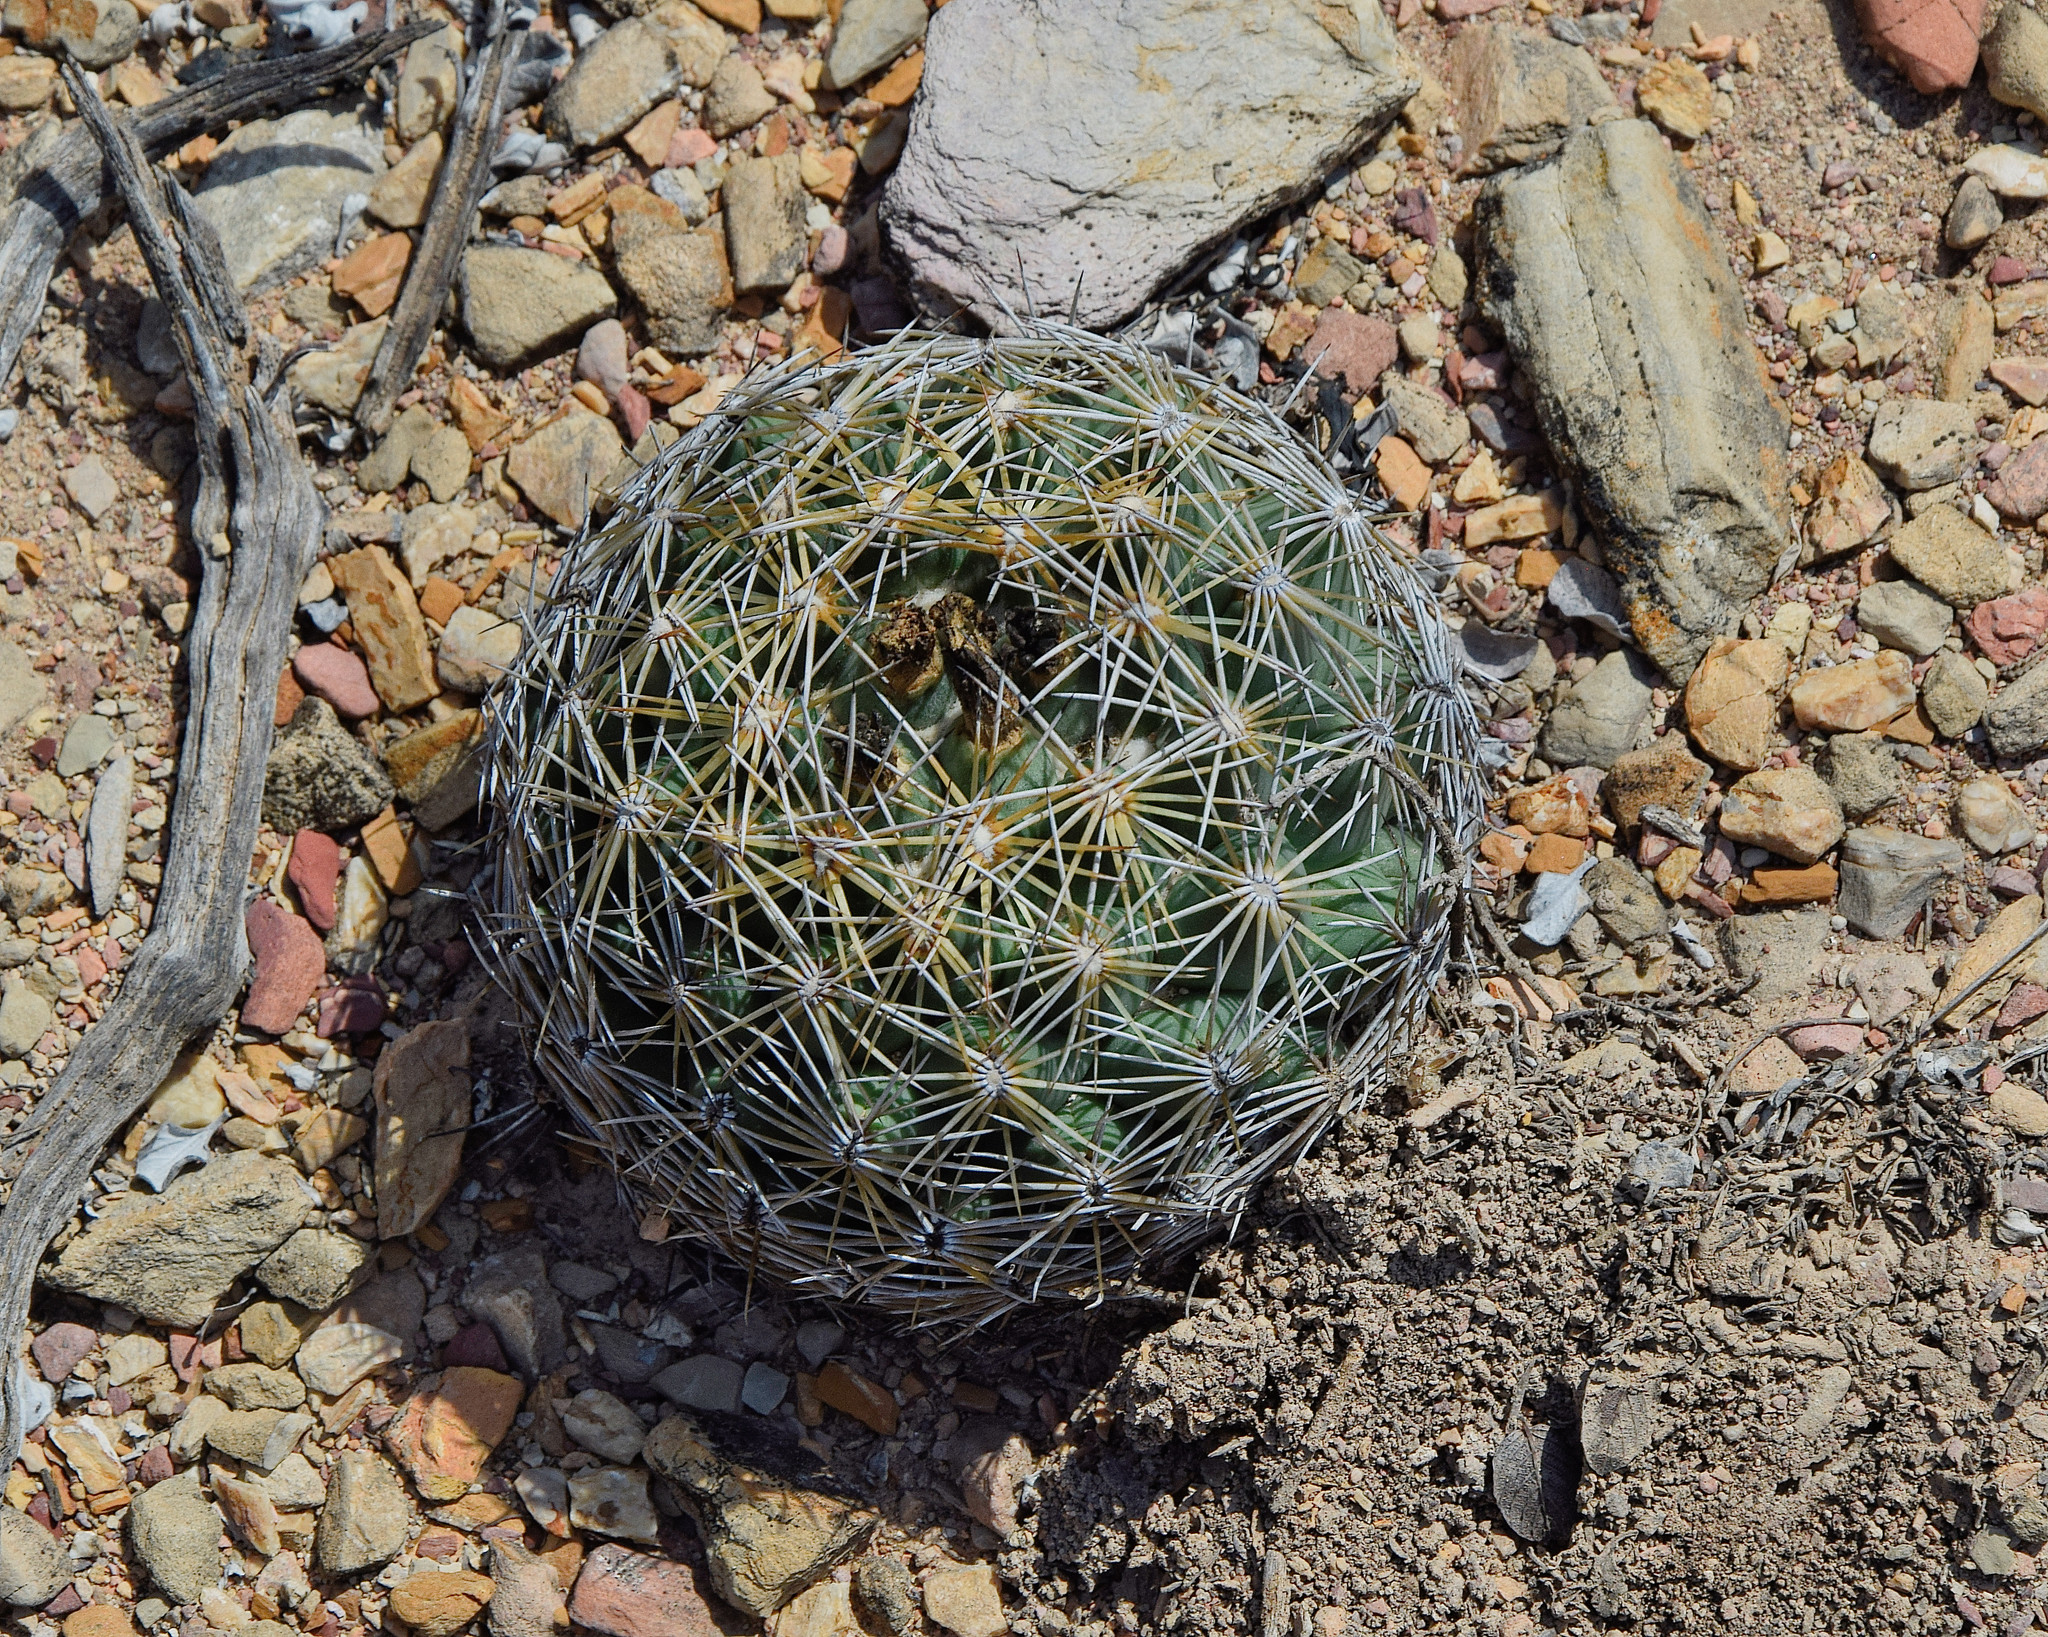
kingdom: Plantae
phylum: Tracheophyta
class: Magnoliopsida
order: Caryophyllales
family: Cactaceae
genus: Coryphantha
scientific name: Coryphantha cornifera
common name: Rhinoceros cactus
